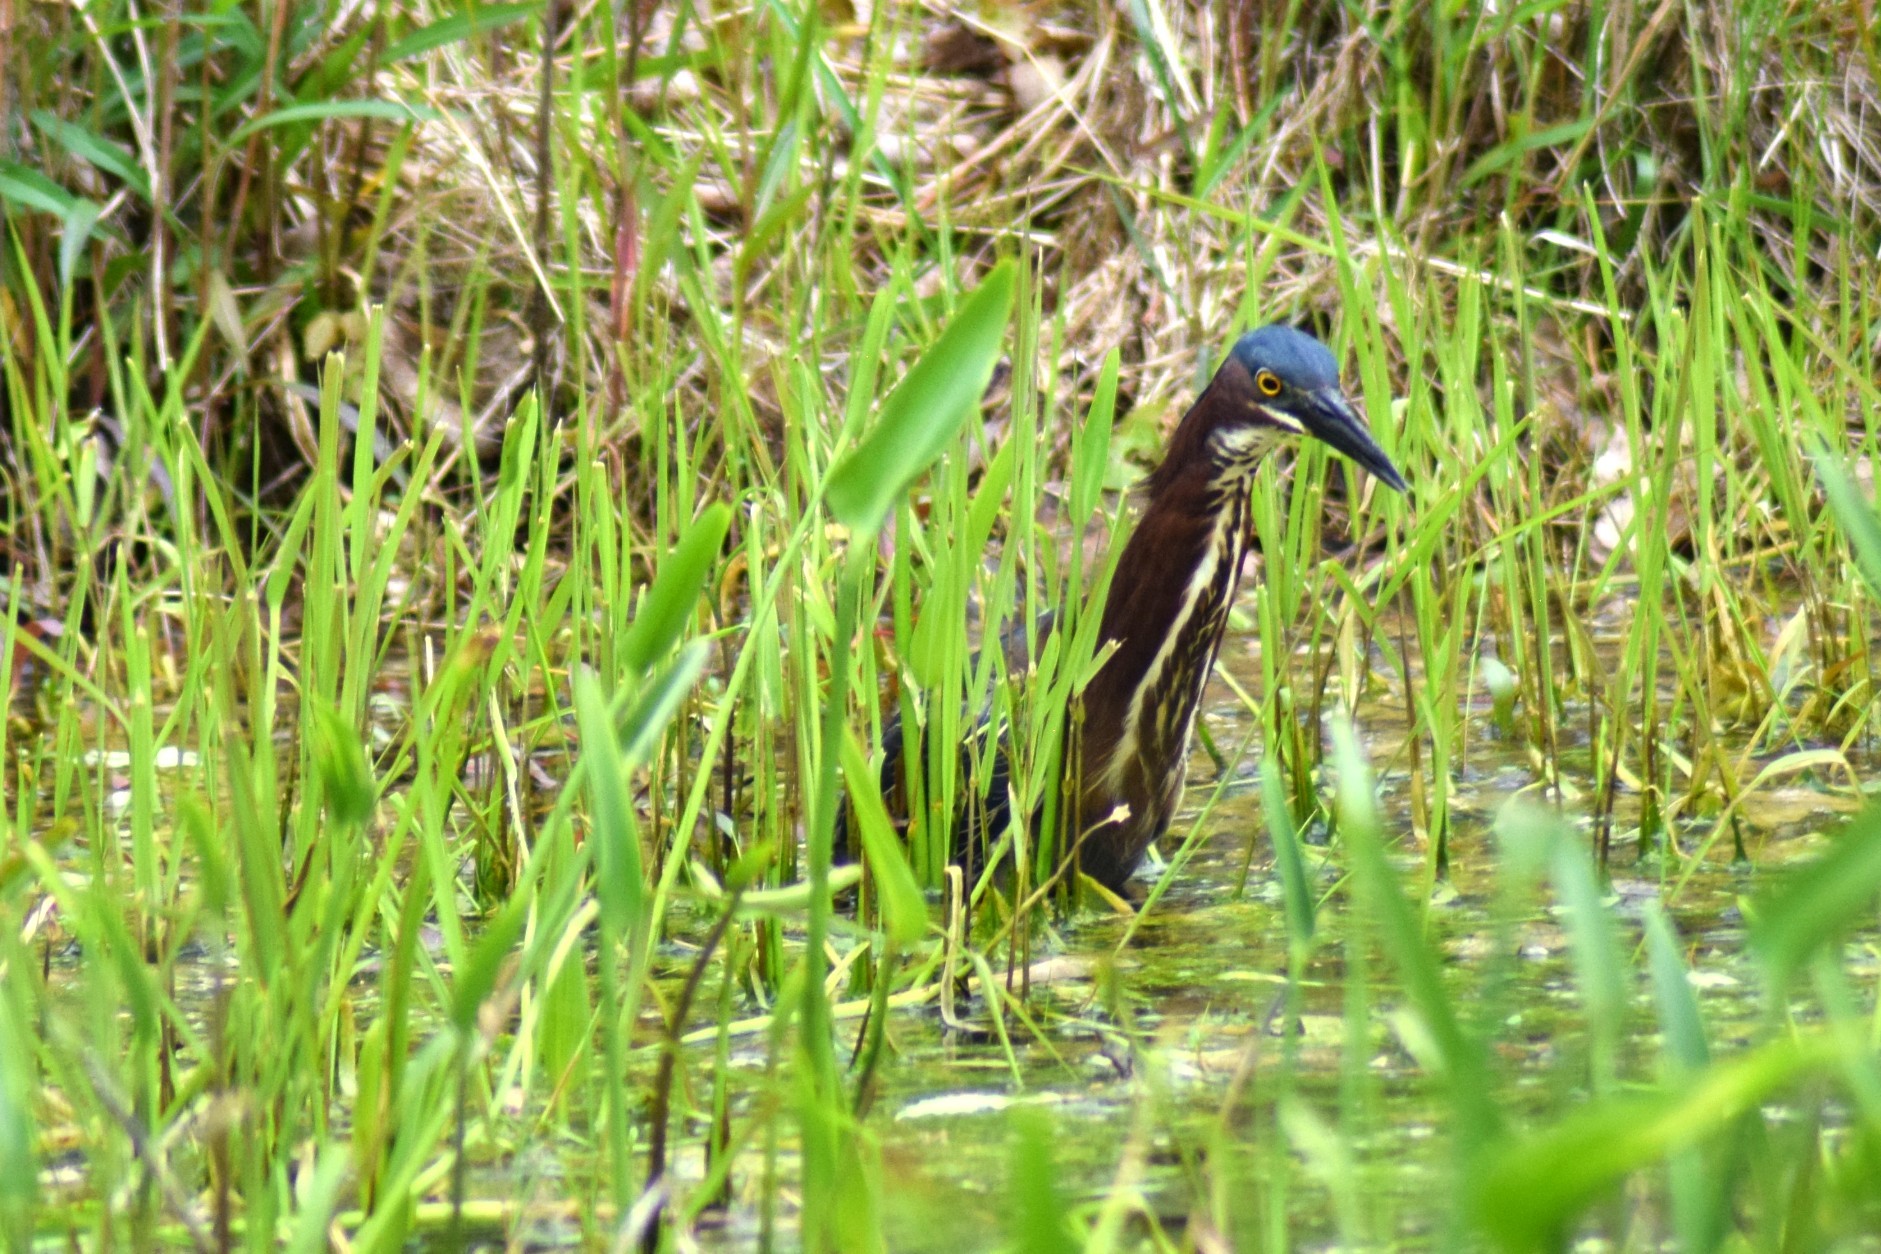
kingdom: Animalia
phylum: Chordata
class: Aves
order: Pelecaniformes
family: Ardeidae
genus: Butorides
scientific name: Butorides virescens
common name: Green heron
